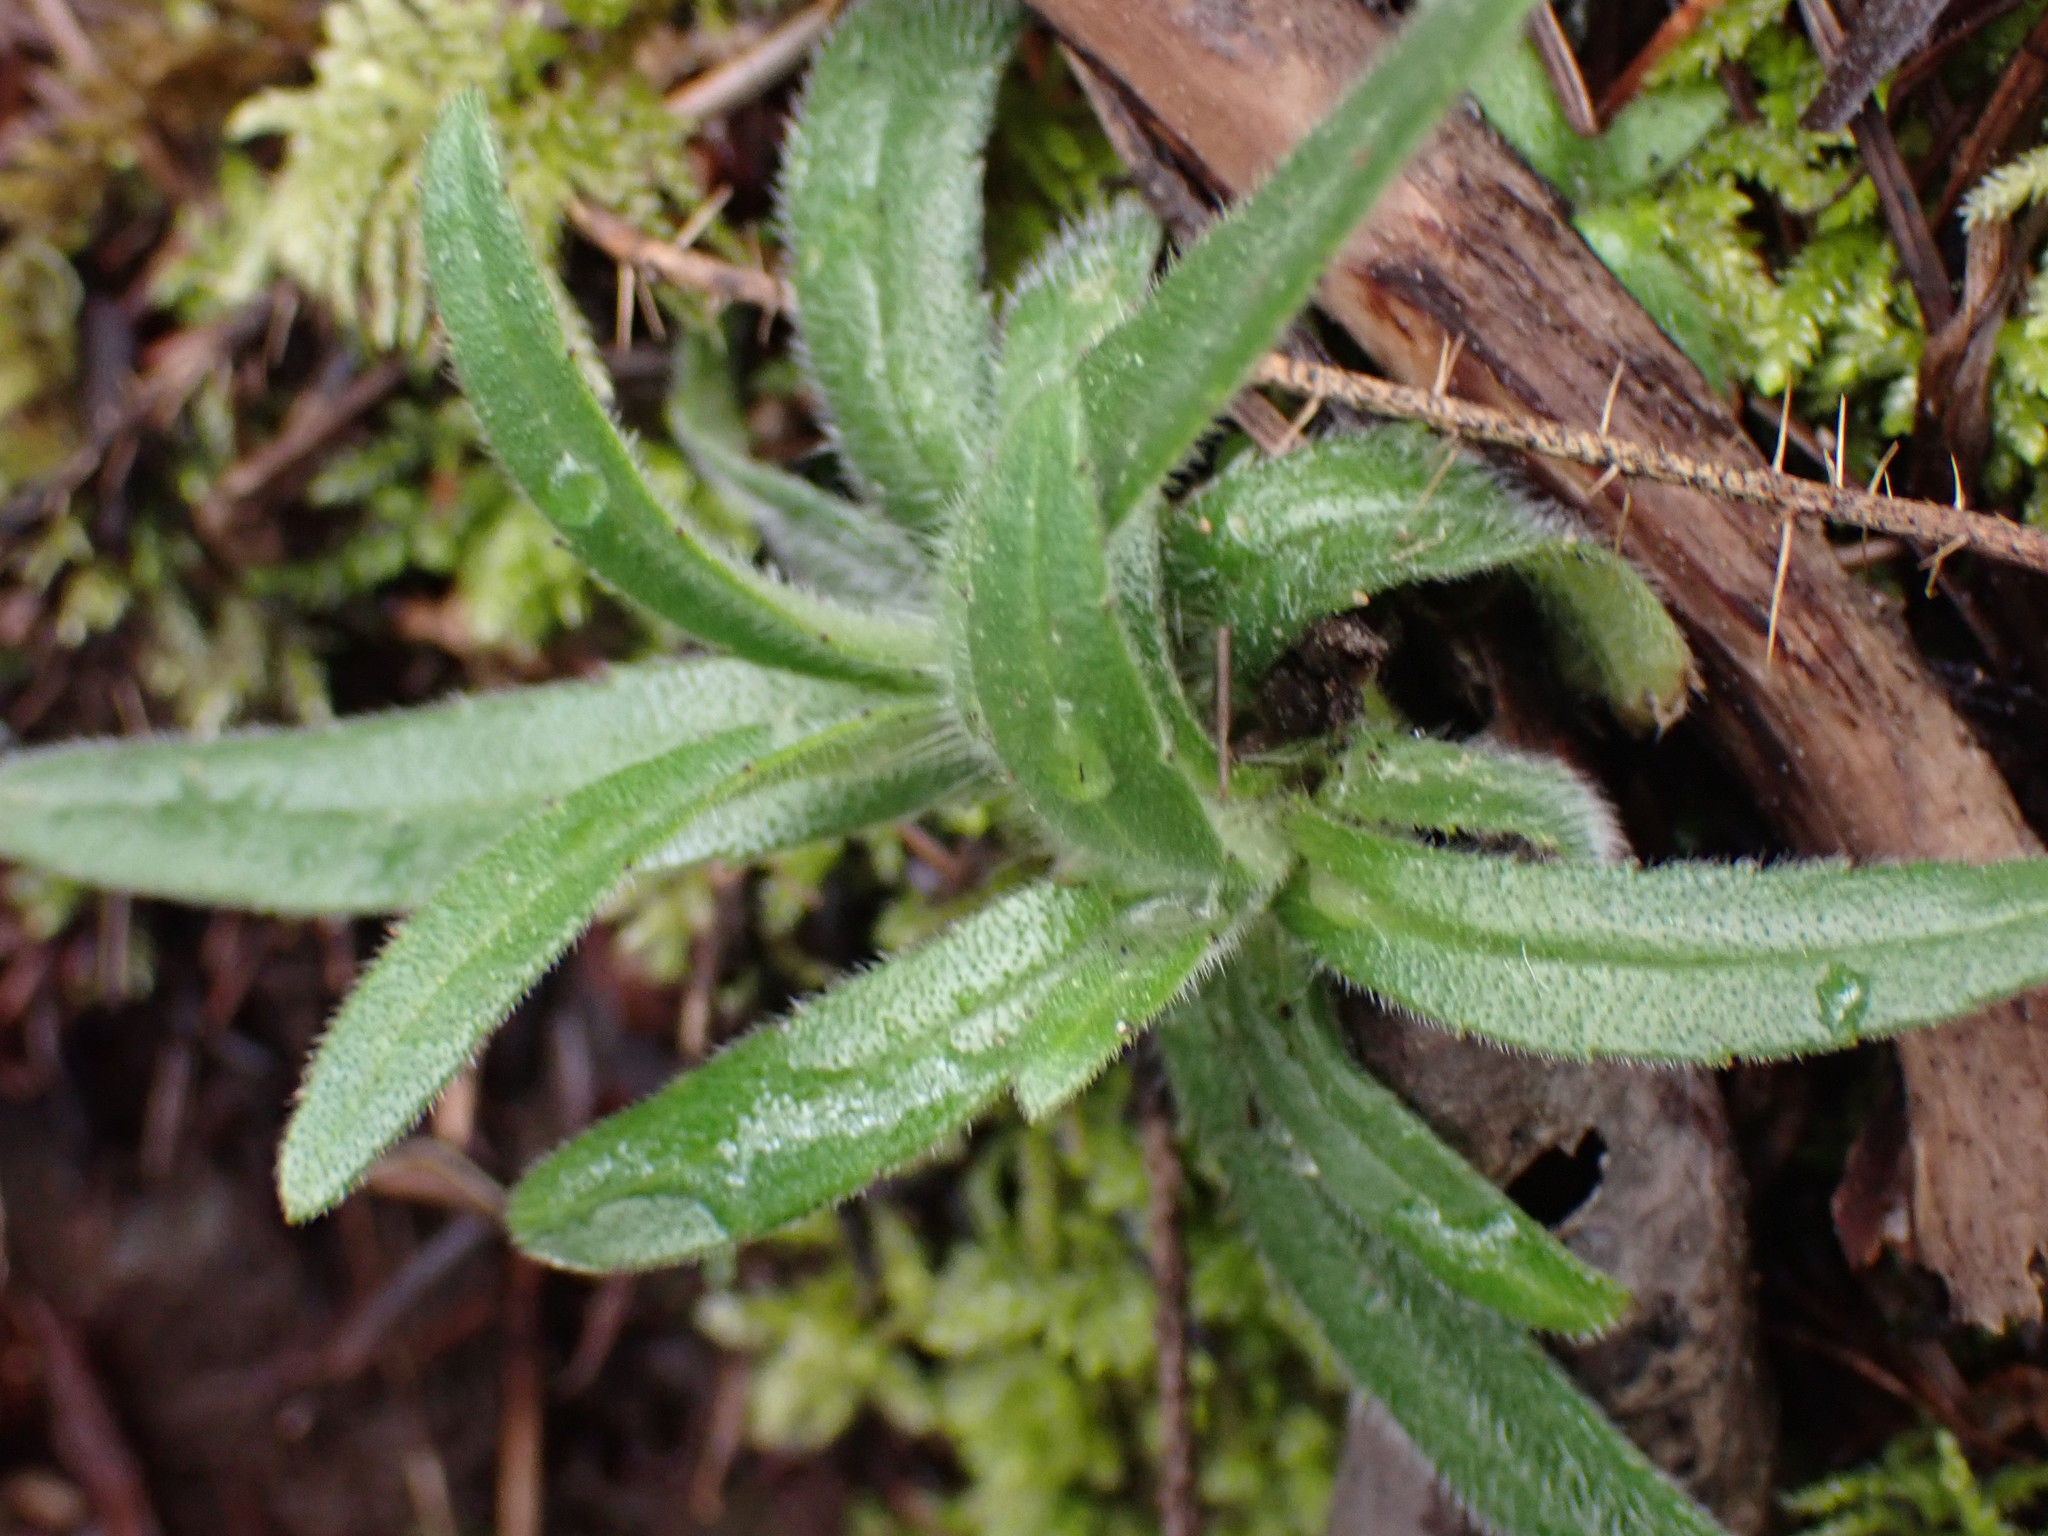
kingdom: Plantae
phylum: Tracheophyta
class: Magnoliopsida
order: Asterales
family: Asteraceae
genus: Anisocarpus
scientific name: Anisocarpus madioides
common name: Woodland madia
